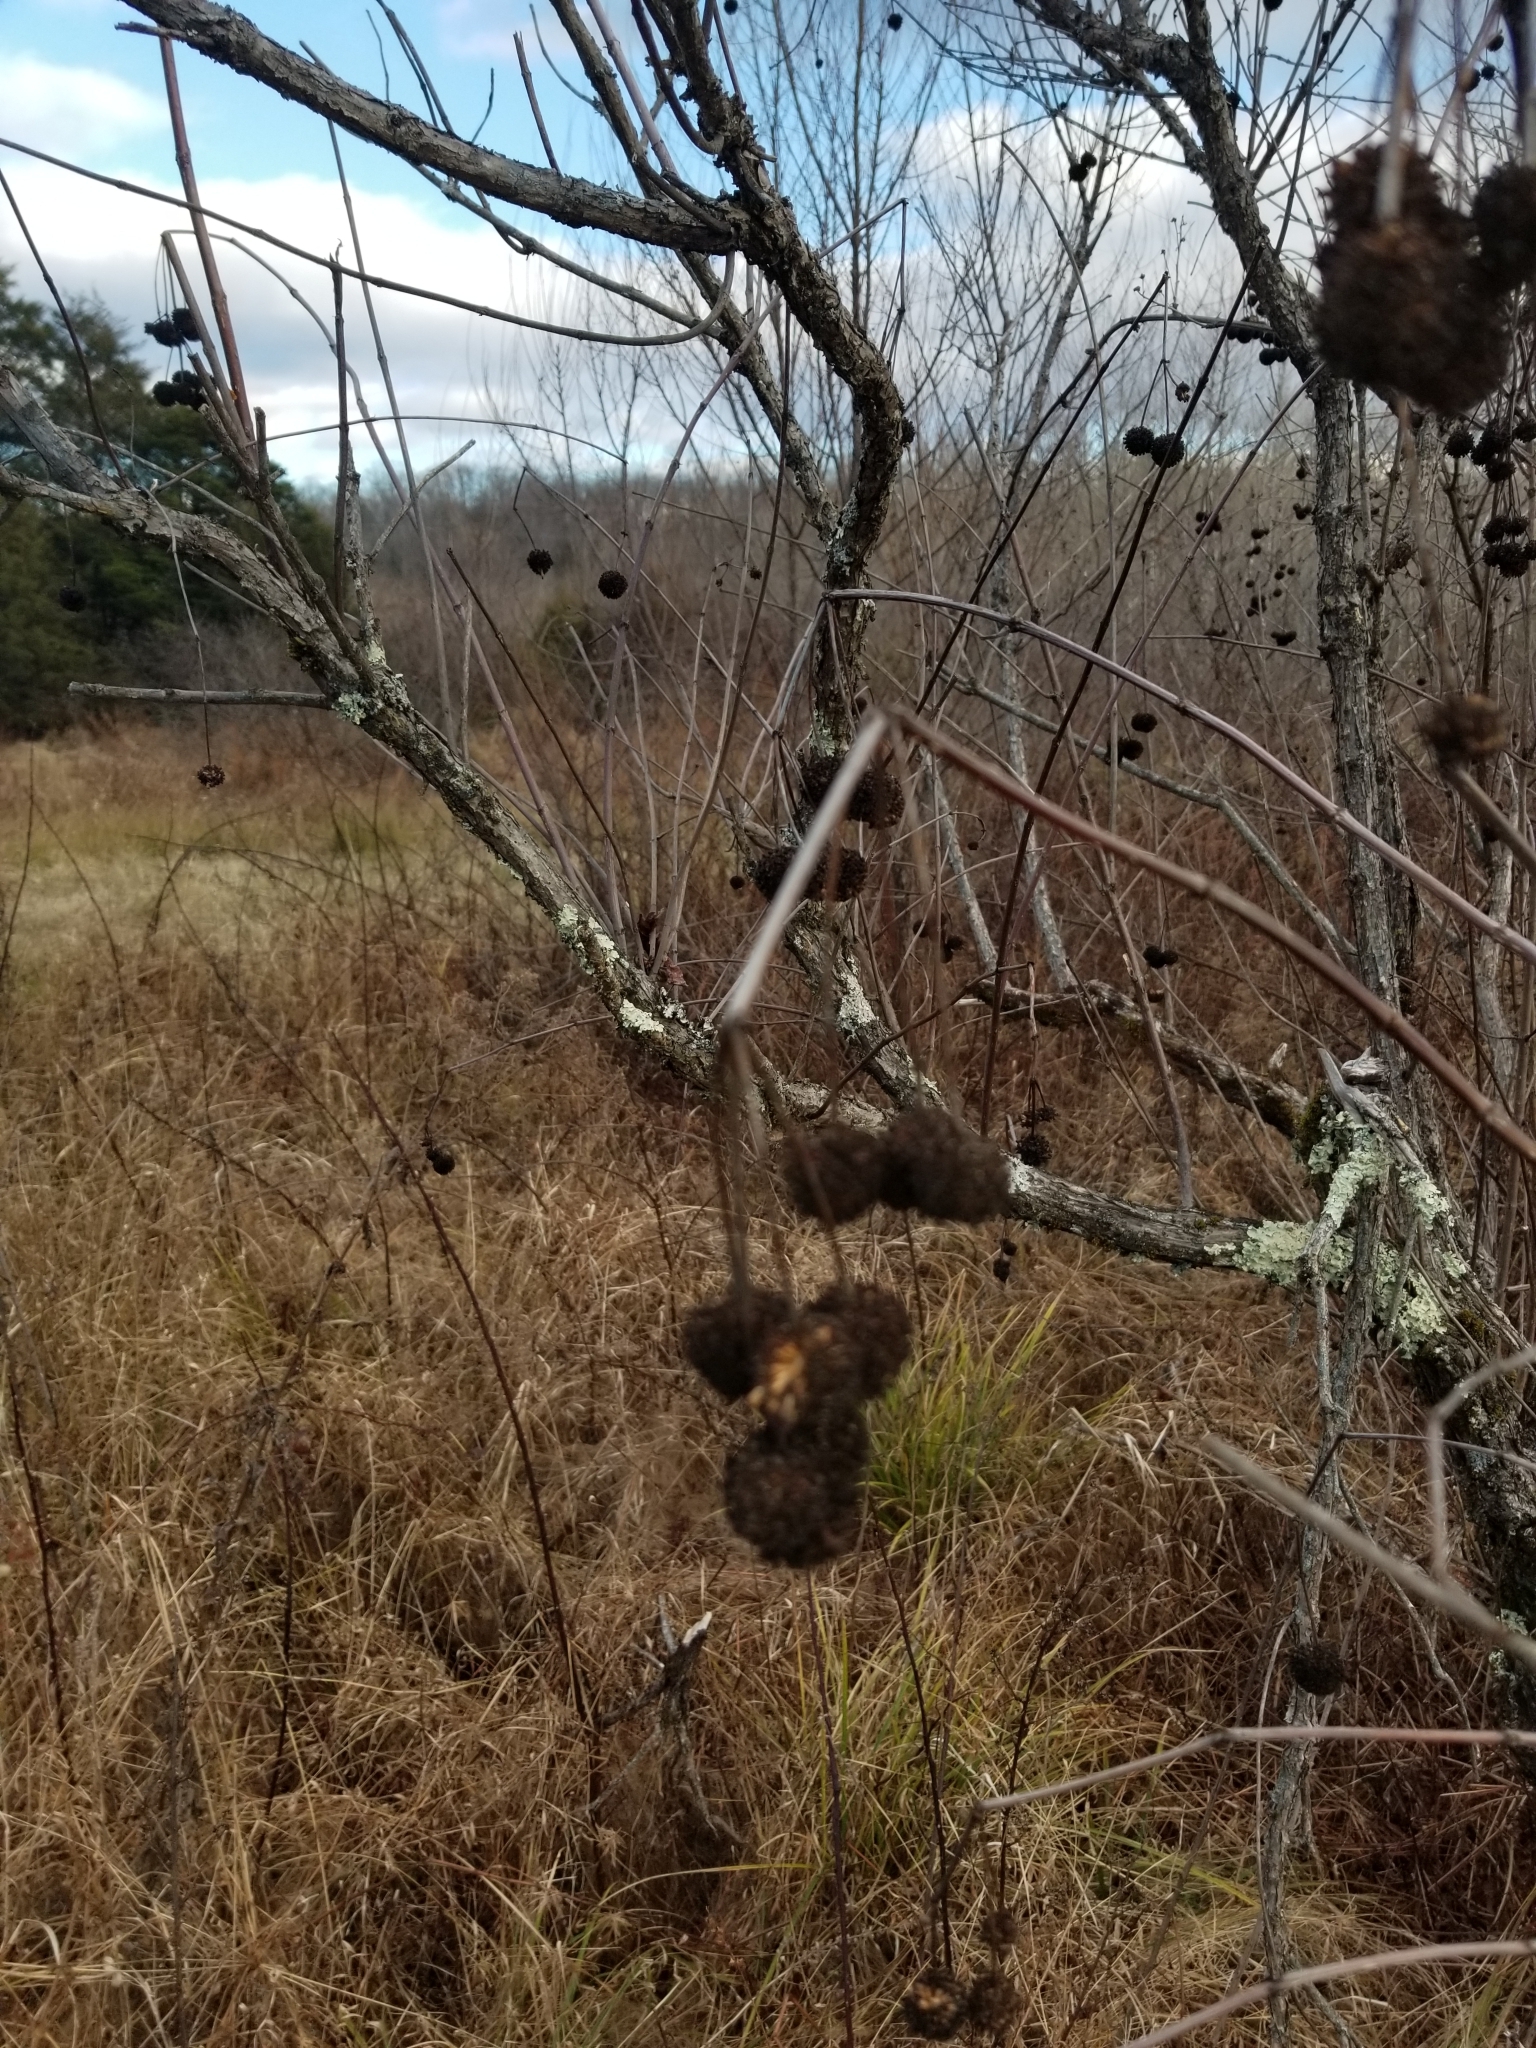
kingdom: Plantae
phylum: Tracheophyta
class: Magnoliopsida
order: Gentianales
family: Rubiaceae
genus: Cephalanthus
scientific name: Cephalanthus occidentalis
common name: Button-willow
